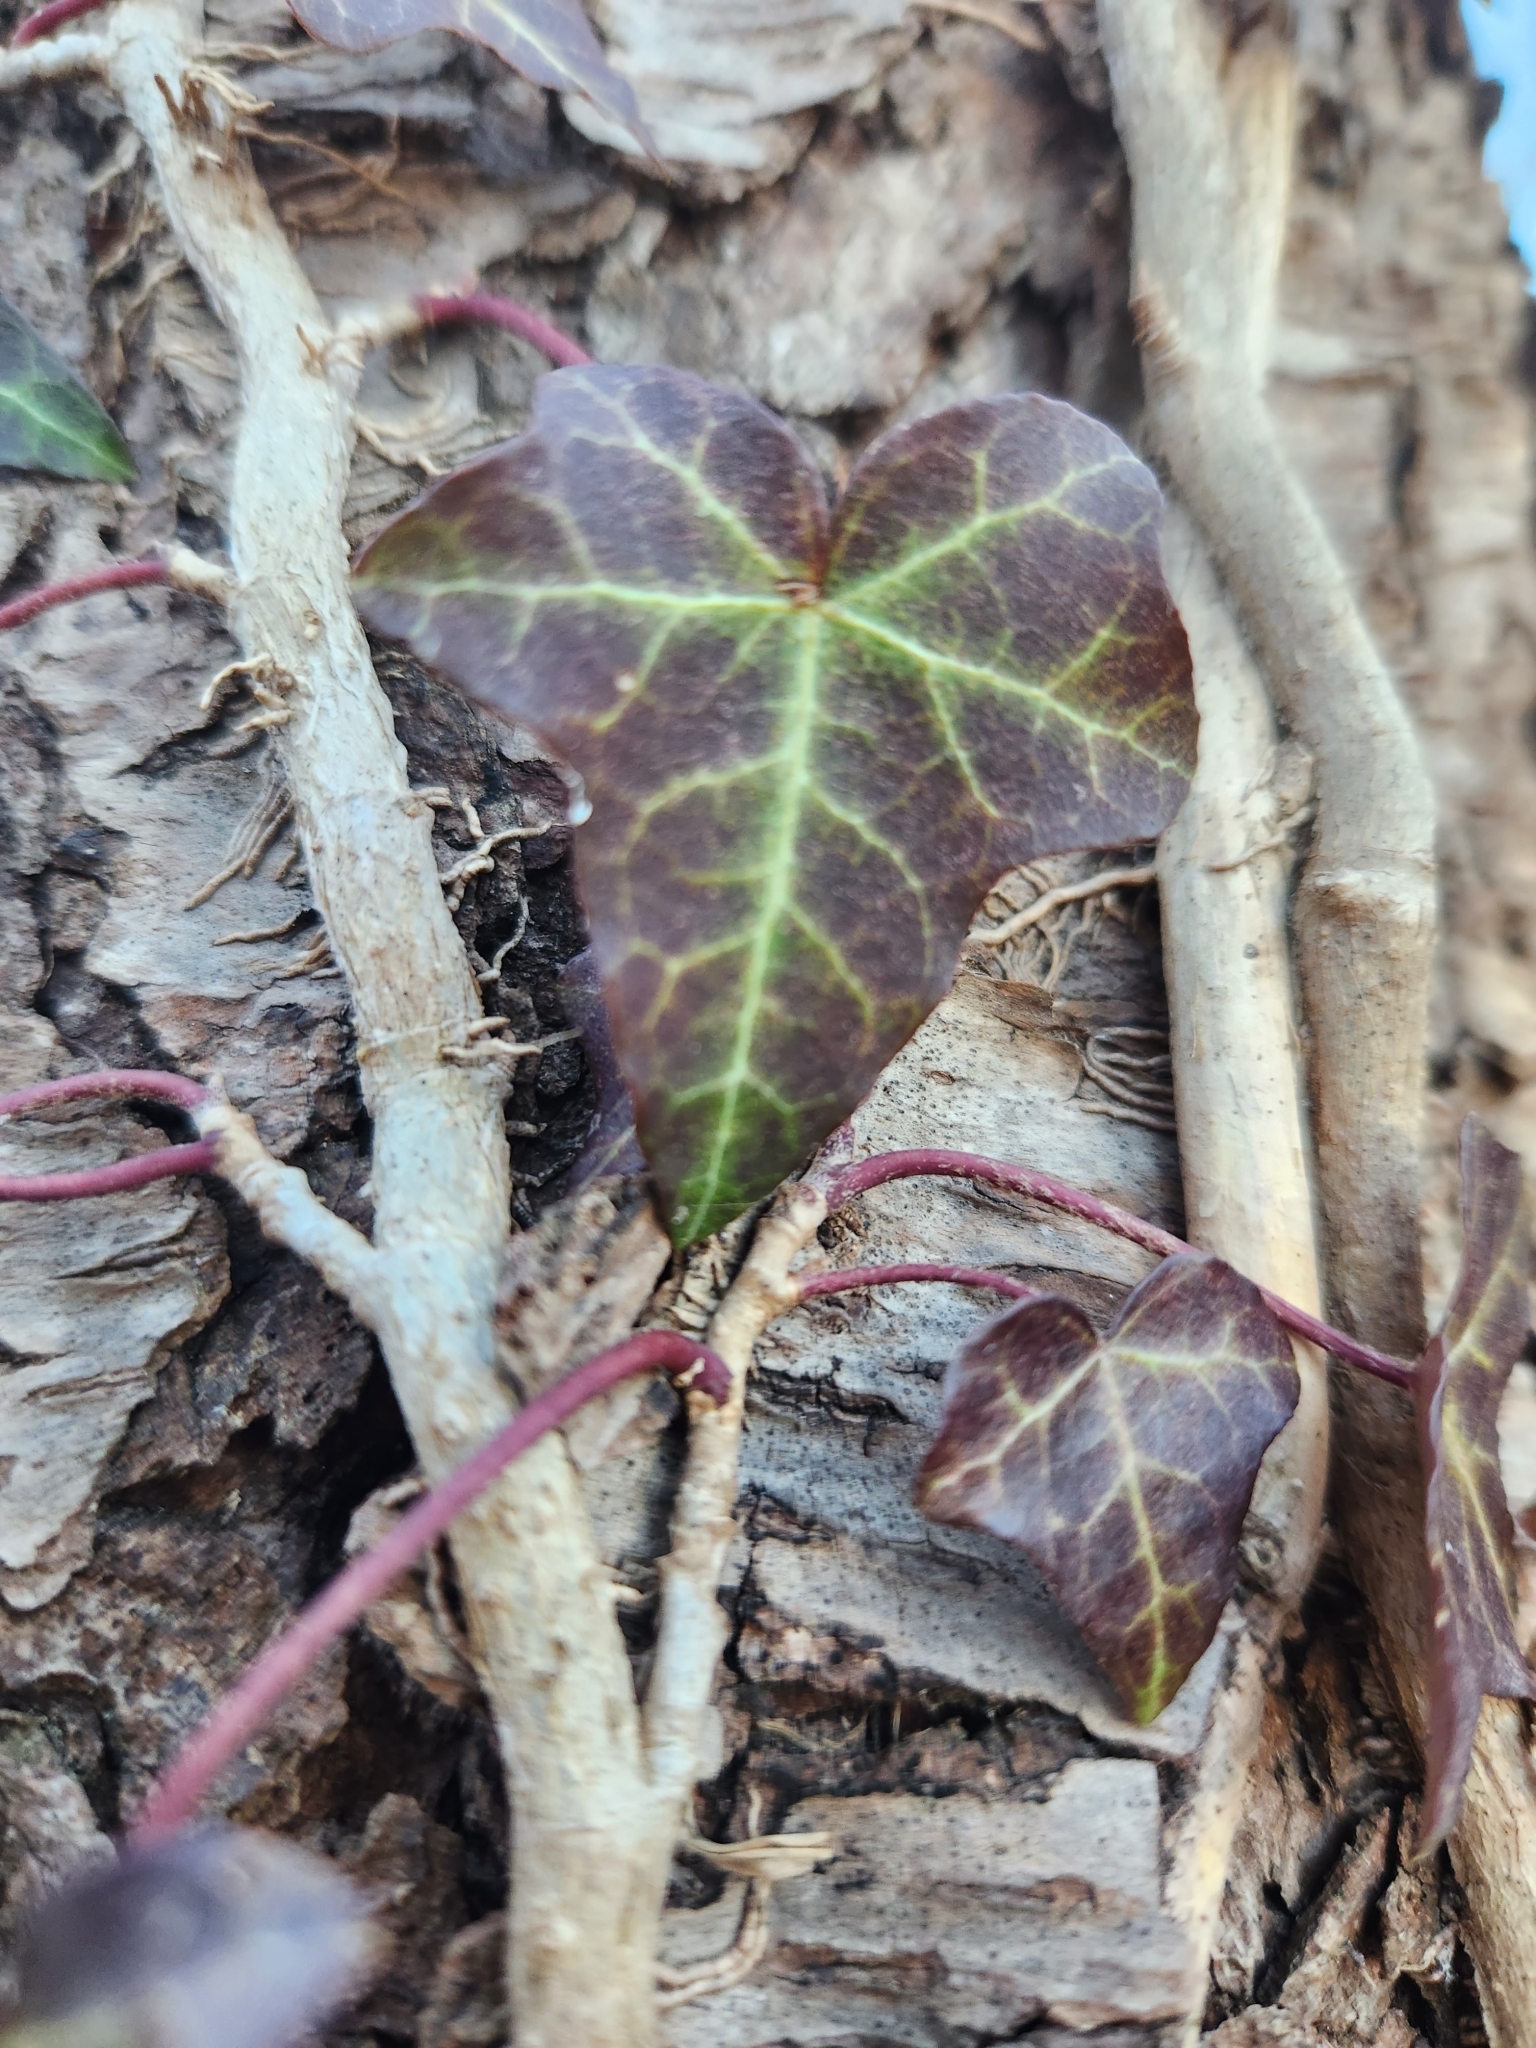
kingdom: Plantae
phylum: Tracheophyta
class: Magnoliopsida
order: Apiales
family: Araliaceae
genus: Hedera
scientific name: Hedera helix
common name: Ivy
